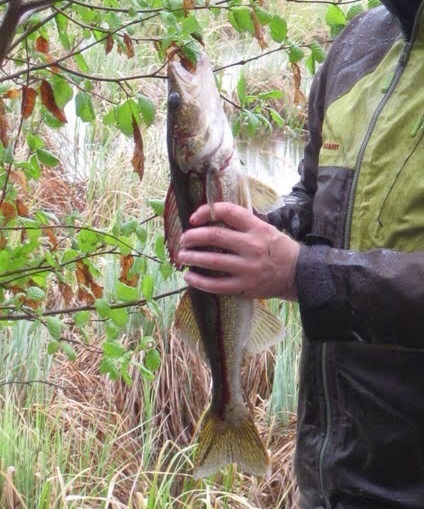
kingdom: Animalia
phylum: Chordata
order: Perciformes
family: Percidae
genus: Sander
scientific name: Sander vitreus
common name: Walleye
